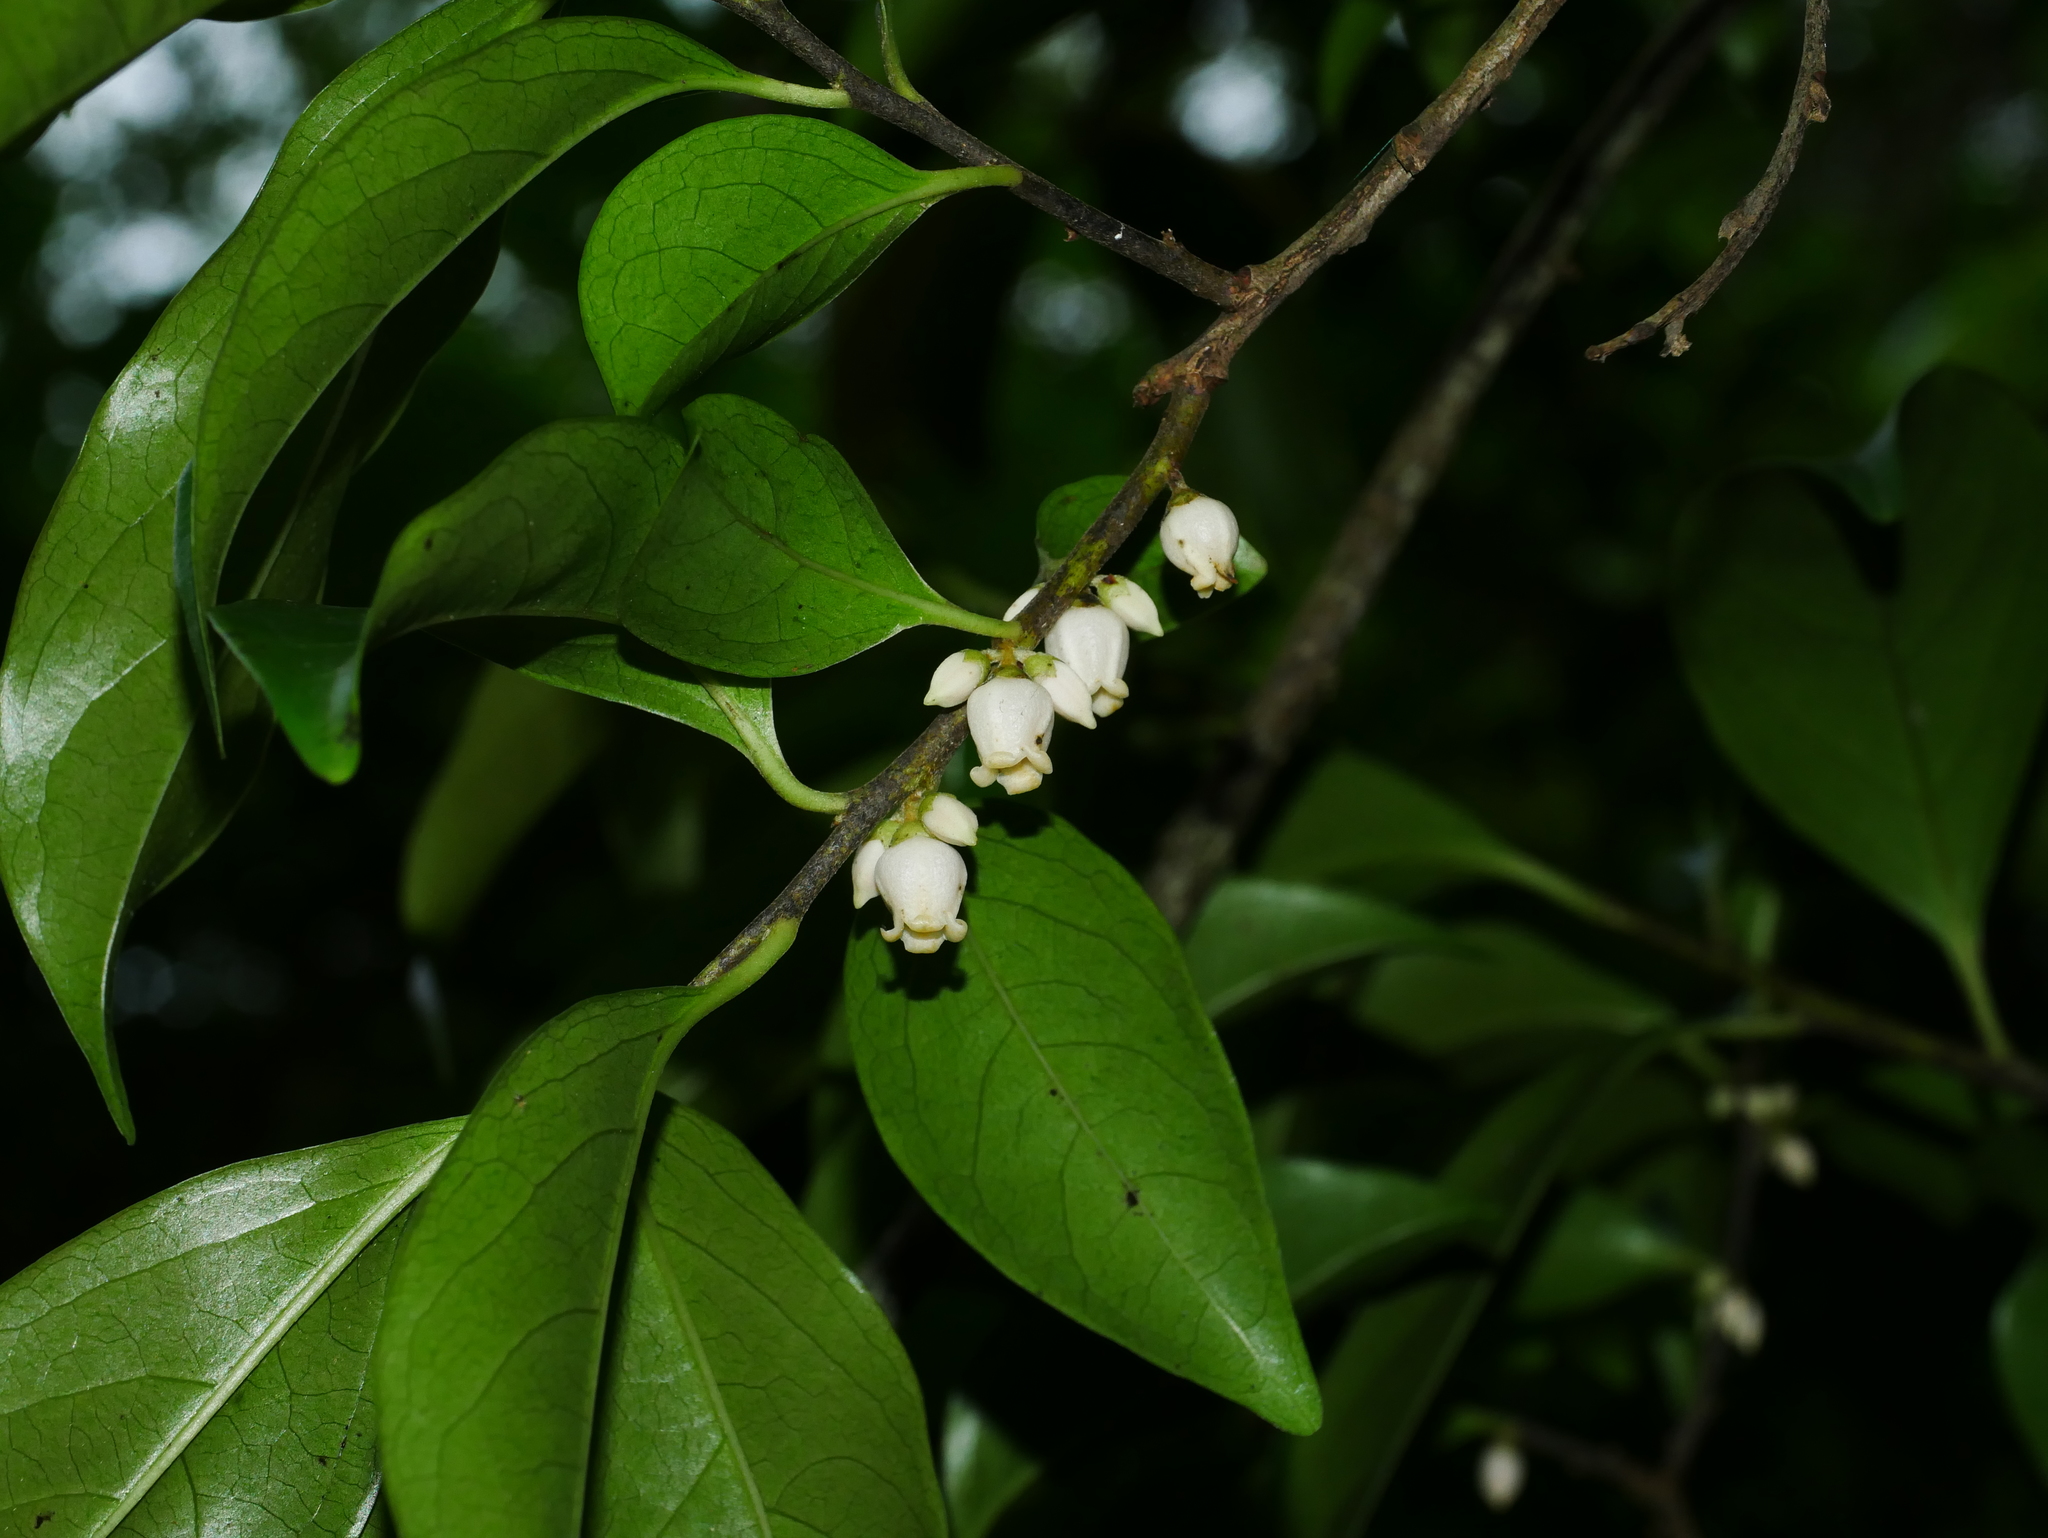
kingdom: Plantae
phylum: Tracheophyta
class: Magnoliopsida
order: Ericales
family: Ebenaceae
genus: Diospyros
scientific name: Diospyros morrisiana
